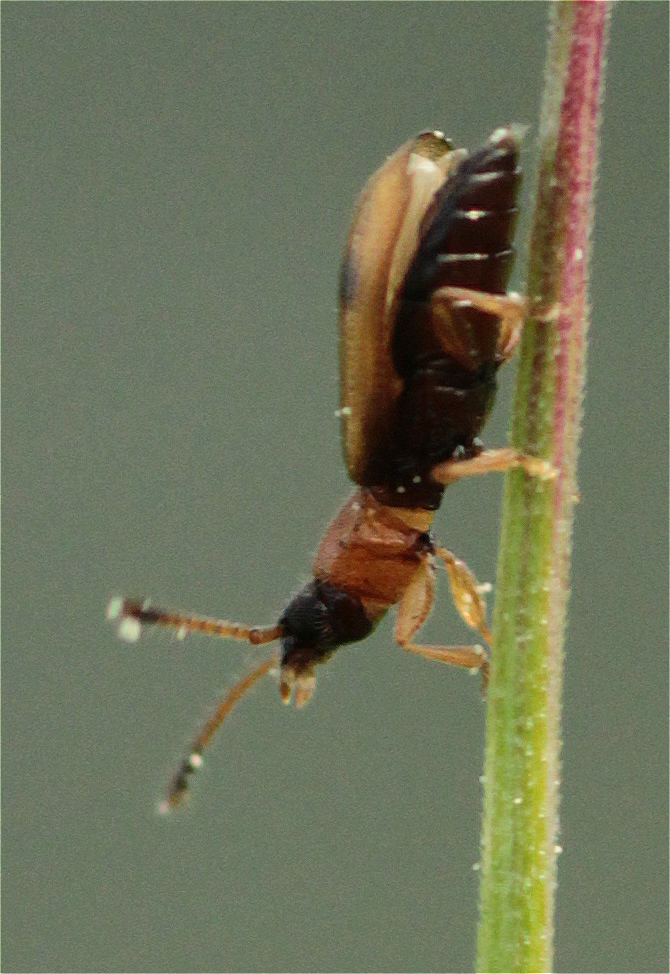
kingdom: Animalia
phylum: Arthropoda
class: Insecta
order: Coleoptera
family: Silvanidae
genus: Psammoecus
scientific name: Psammoecus bipunctatus
